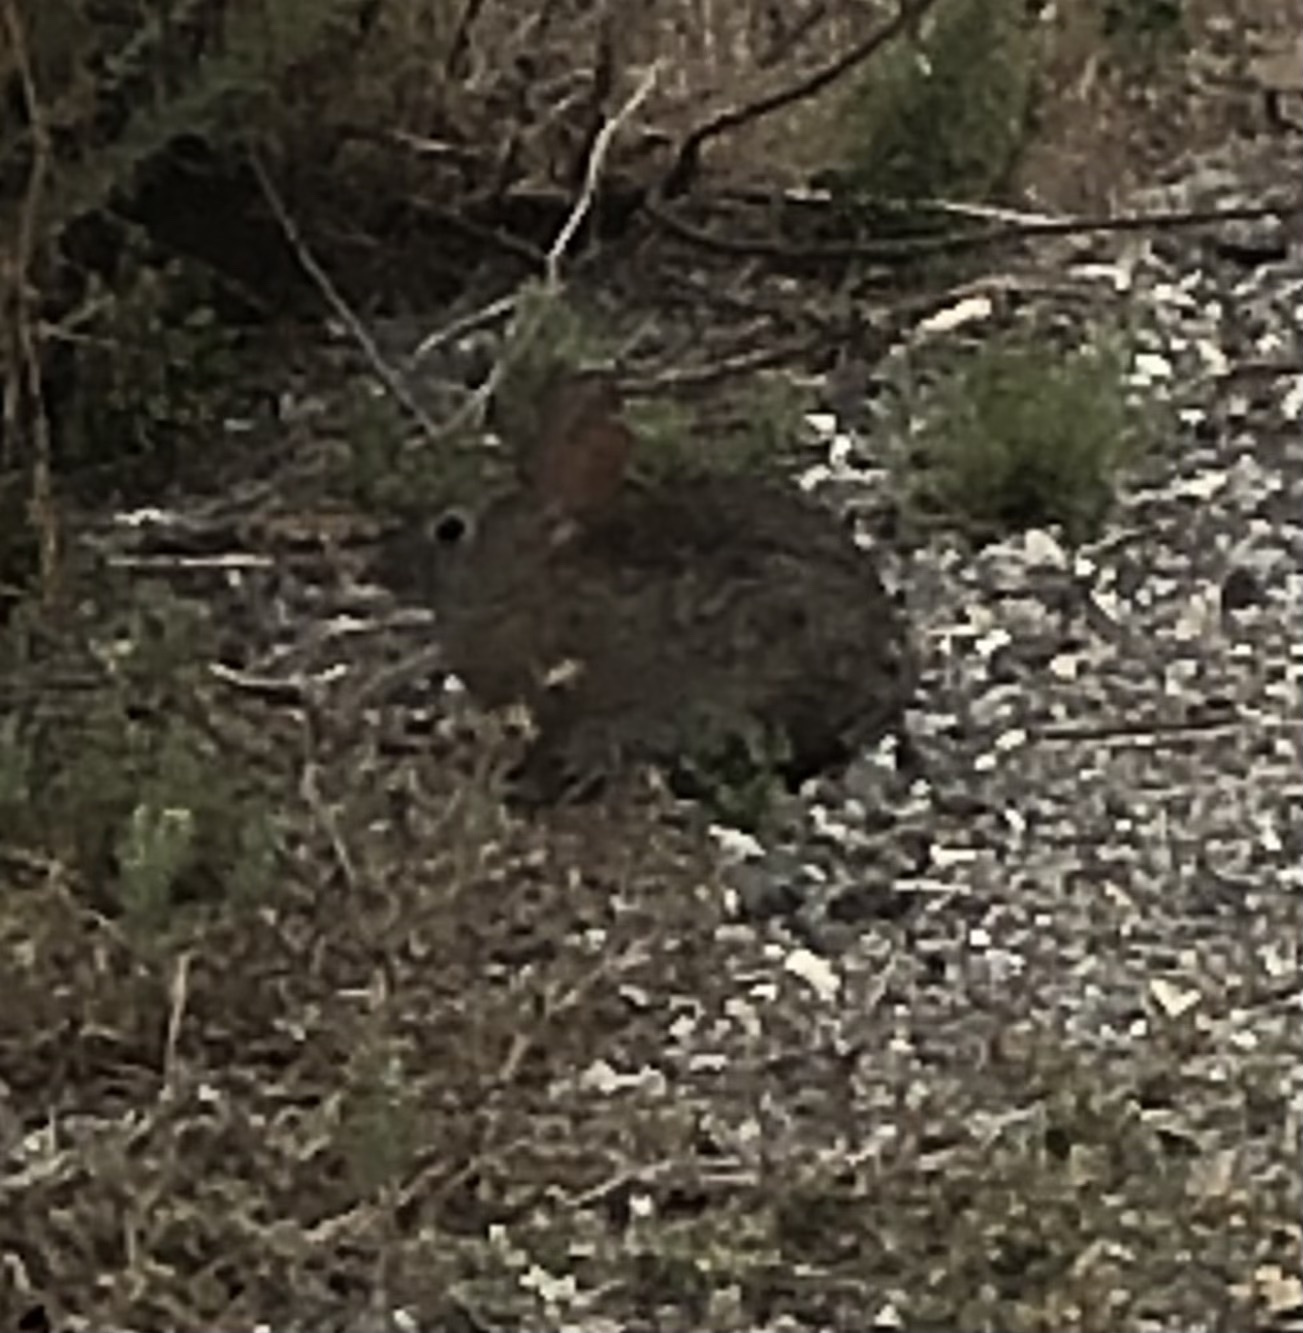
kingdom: Animalia
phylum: Chordata
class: Mammalia
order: Lagomorpha
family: Leporidae
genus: Sylvilagus
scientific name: Sylvilagus bachmani
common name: Brush rabbit
